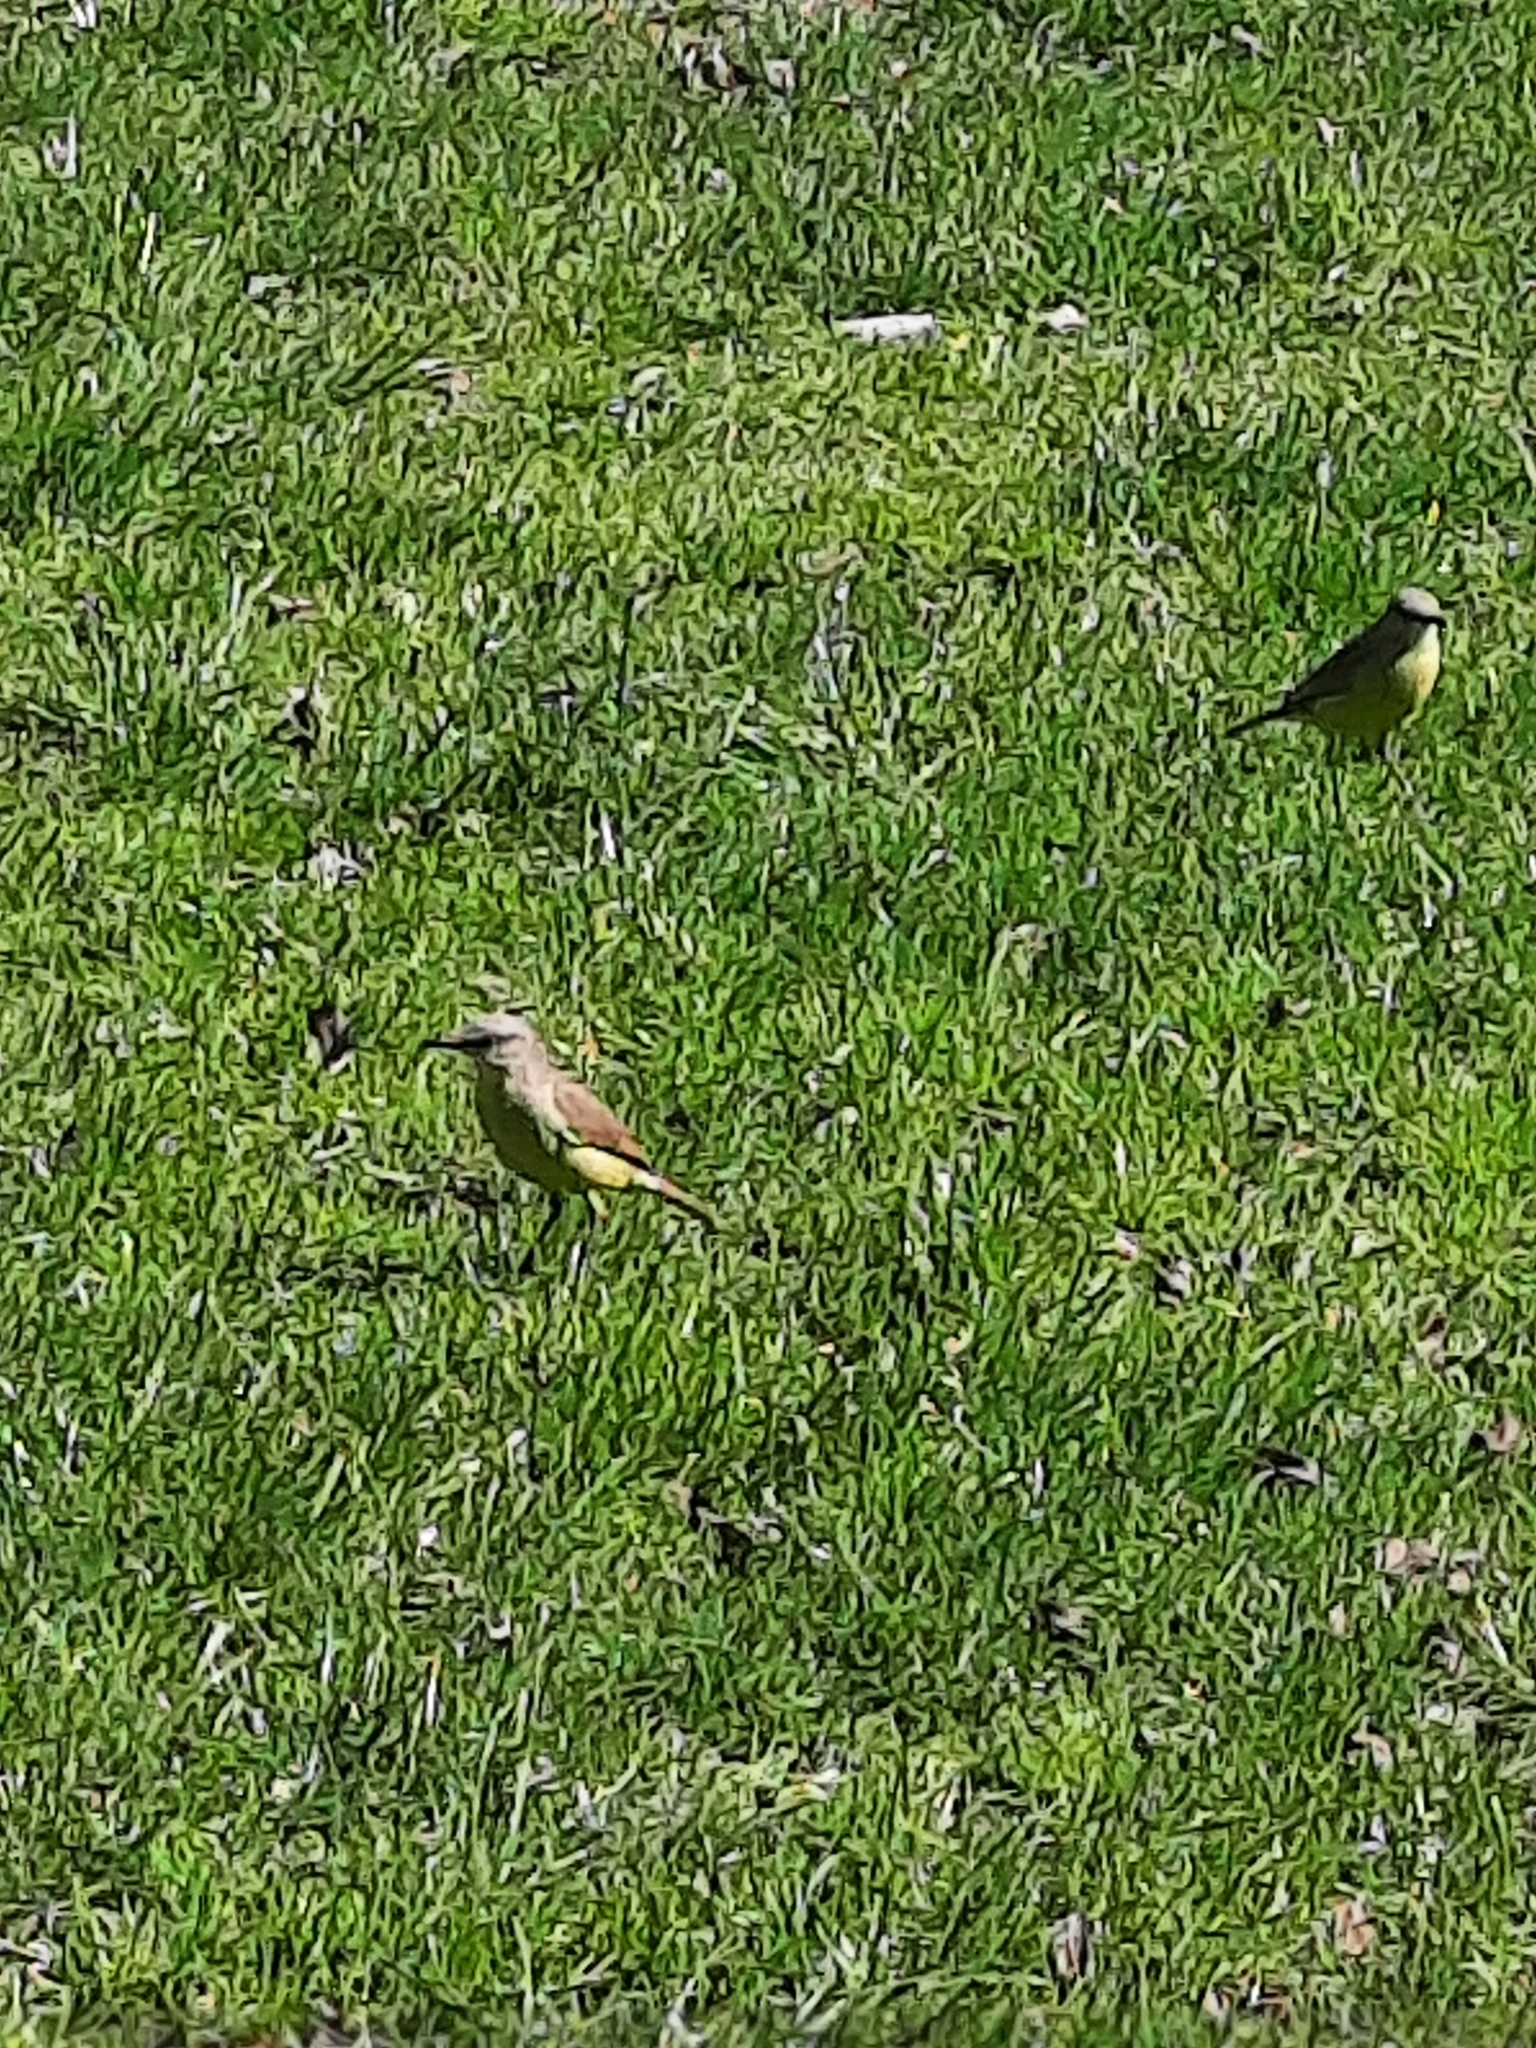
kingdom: Animalia
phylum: Chordata
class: Aves
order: Passeriformes
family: Tyrannidae
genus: Machetornis
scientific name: Machetornis rixosa
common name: Cattle tyrant
